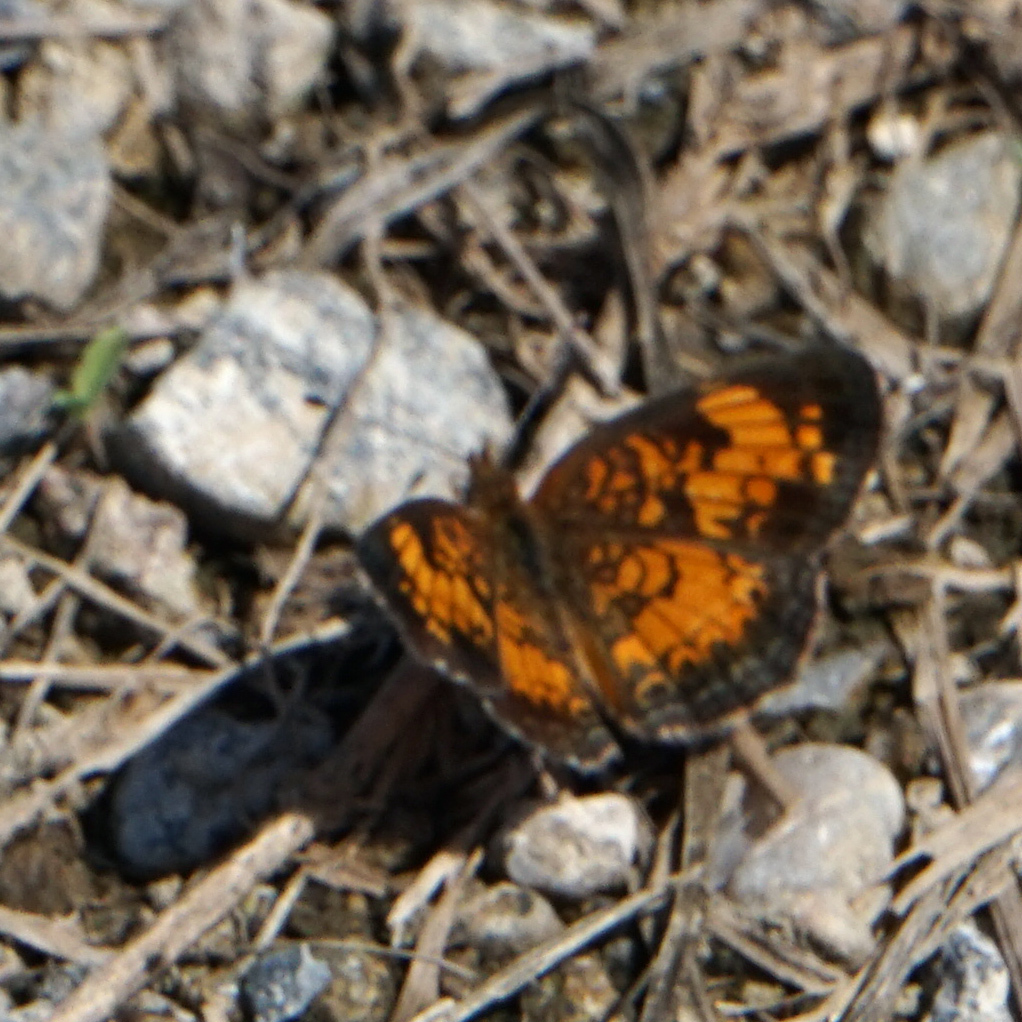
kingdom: Animalia
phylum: Arthropoda
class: Insecta
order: Lepidoptera
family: Nymphalidae
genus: Phyciodes
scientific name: Phyciodes tharos
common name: Pearl crescent
